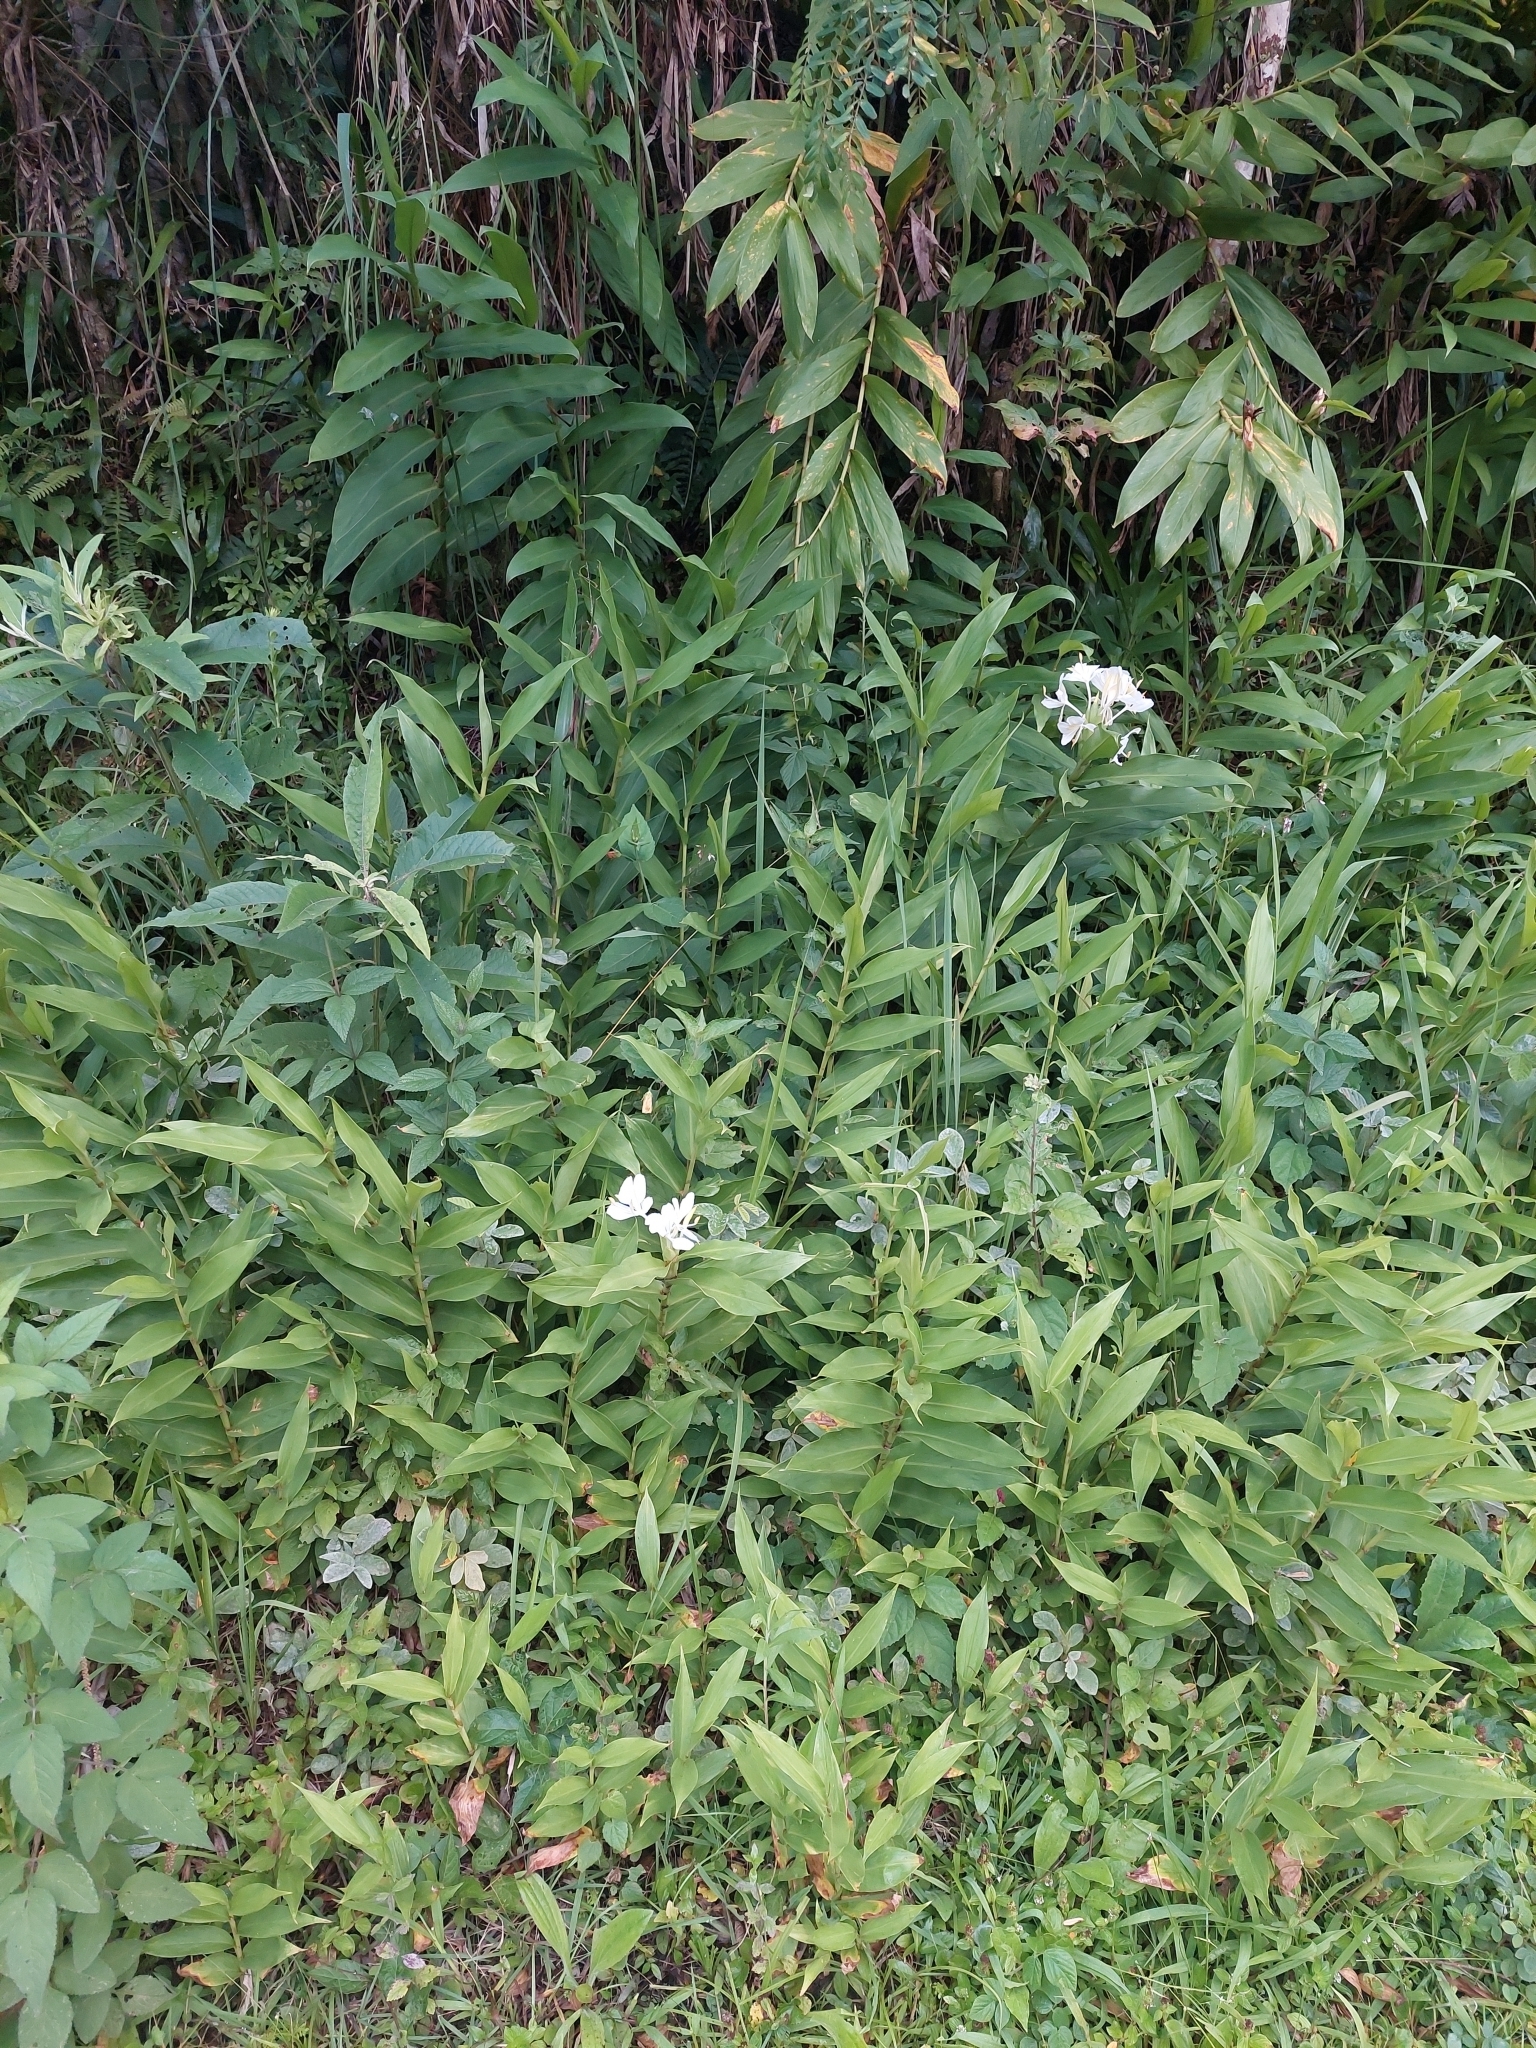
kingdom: Plantae
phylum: Tracheophyta
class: Liliopsida
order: Zingiberales
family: Zingiberaceae
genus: Hedychium
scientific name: Hedychium coronarium
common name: White garland-lily
